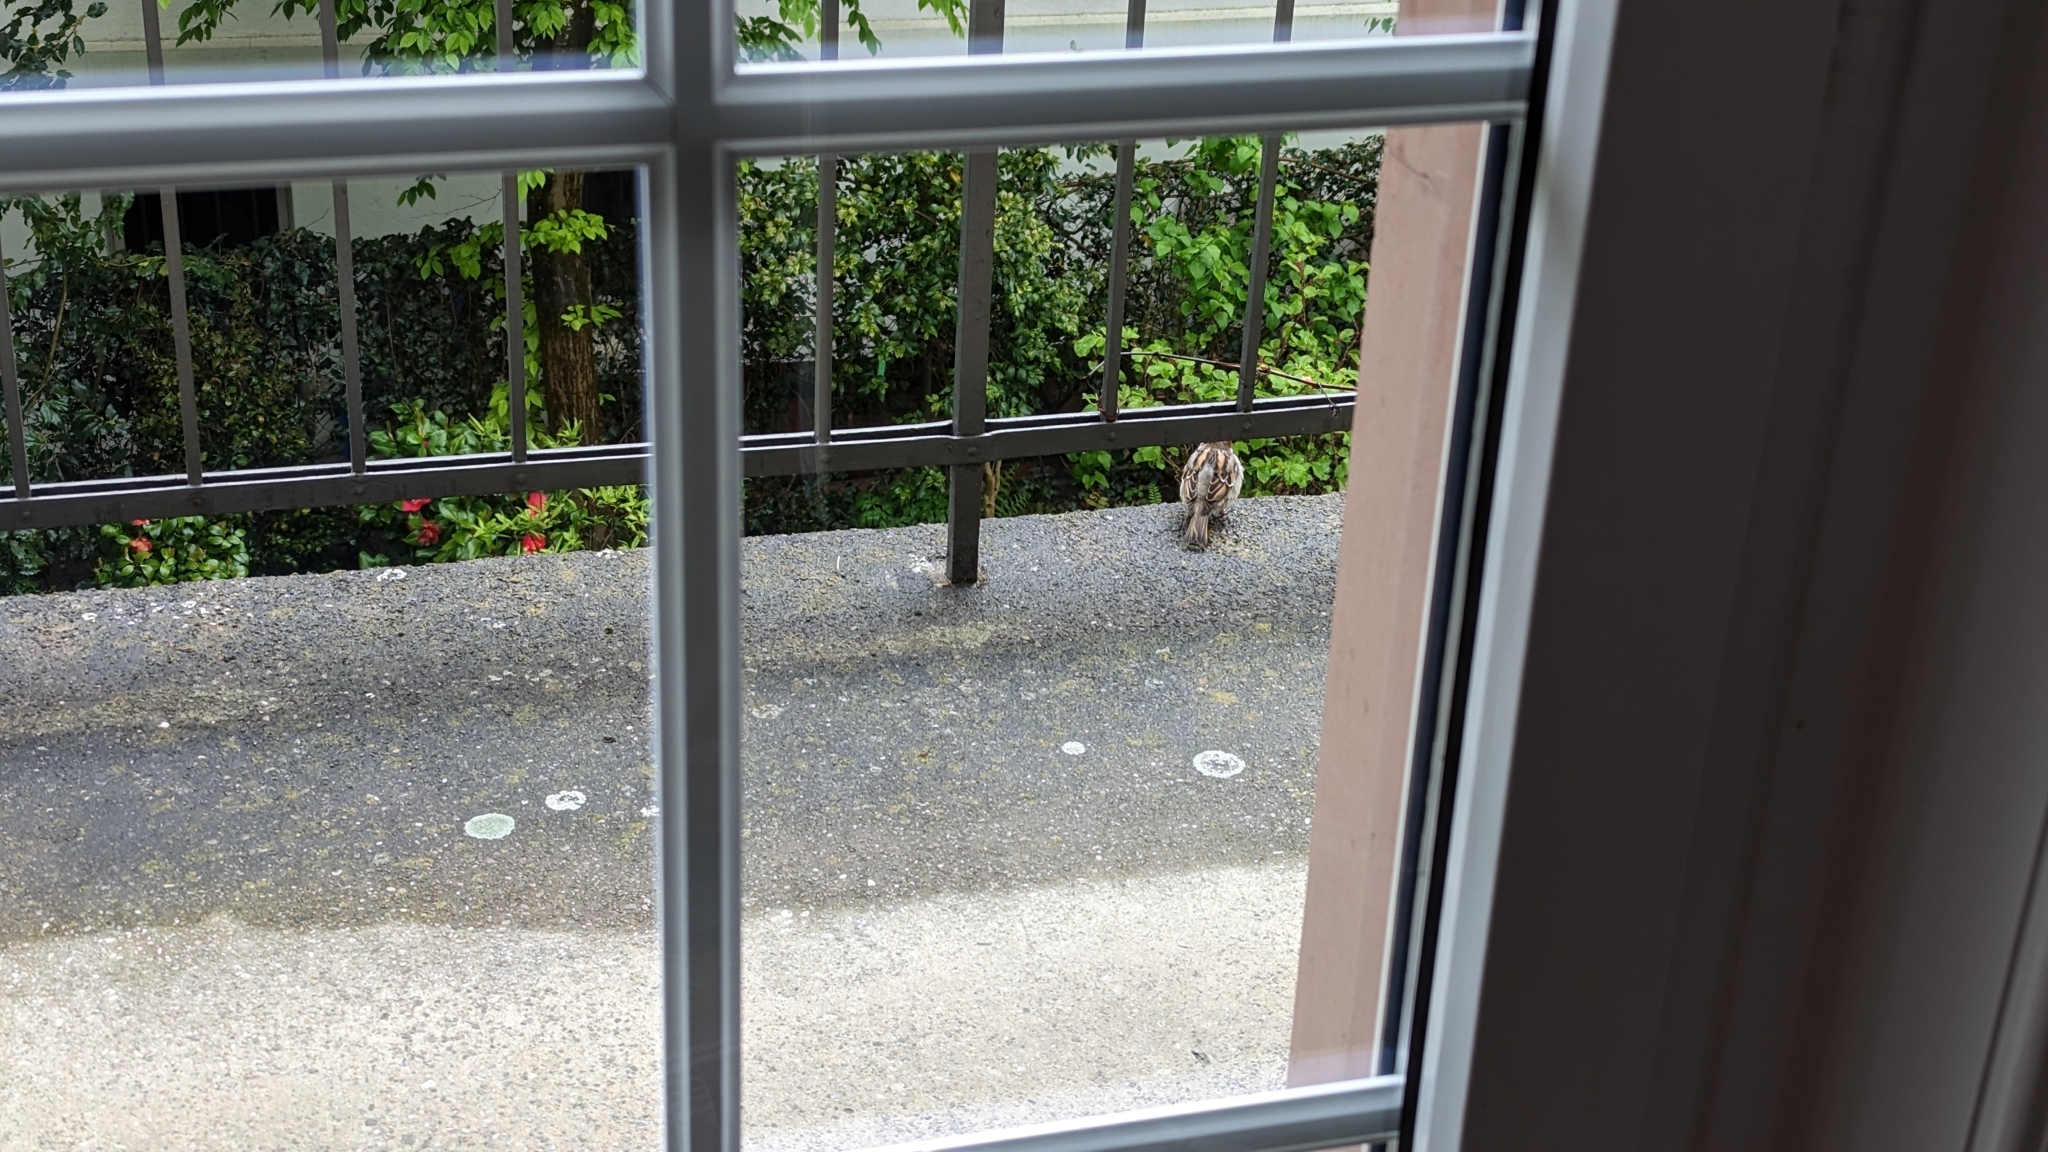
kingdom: Animalia
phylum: Chordata
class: Aves
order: Passeriformes
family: Passeridae
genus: Passer
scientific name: Passer domesticus
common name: House sparrow
